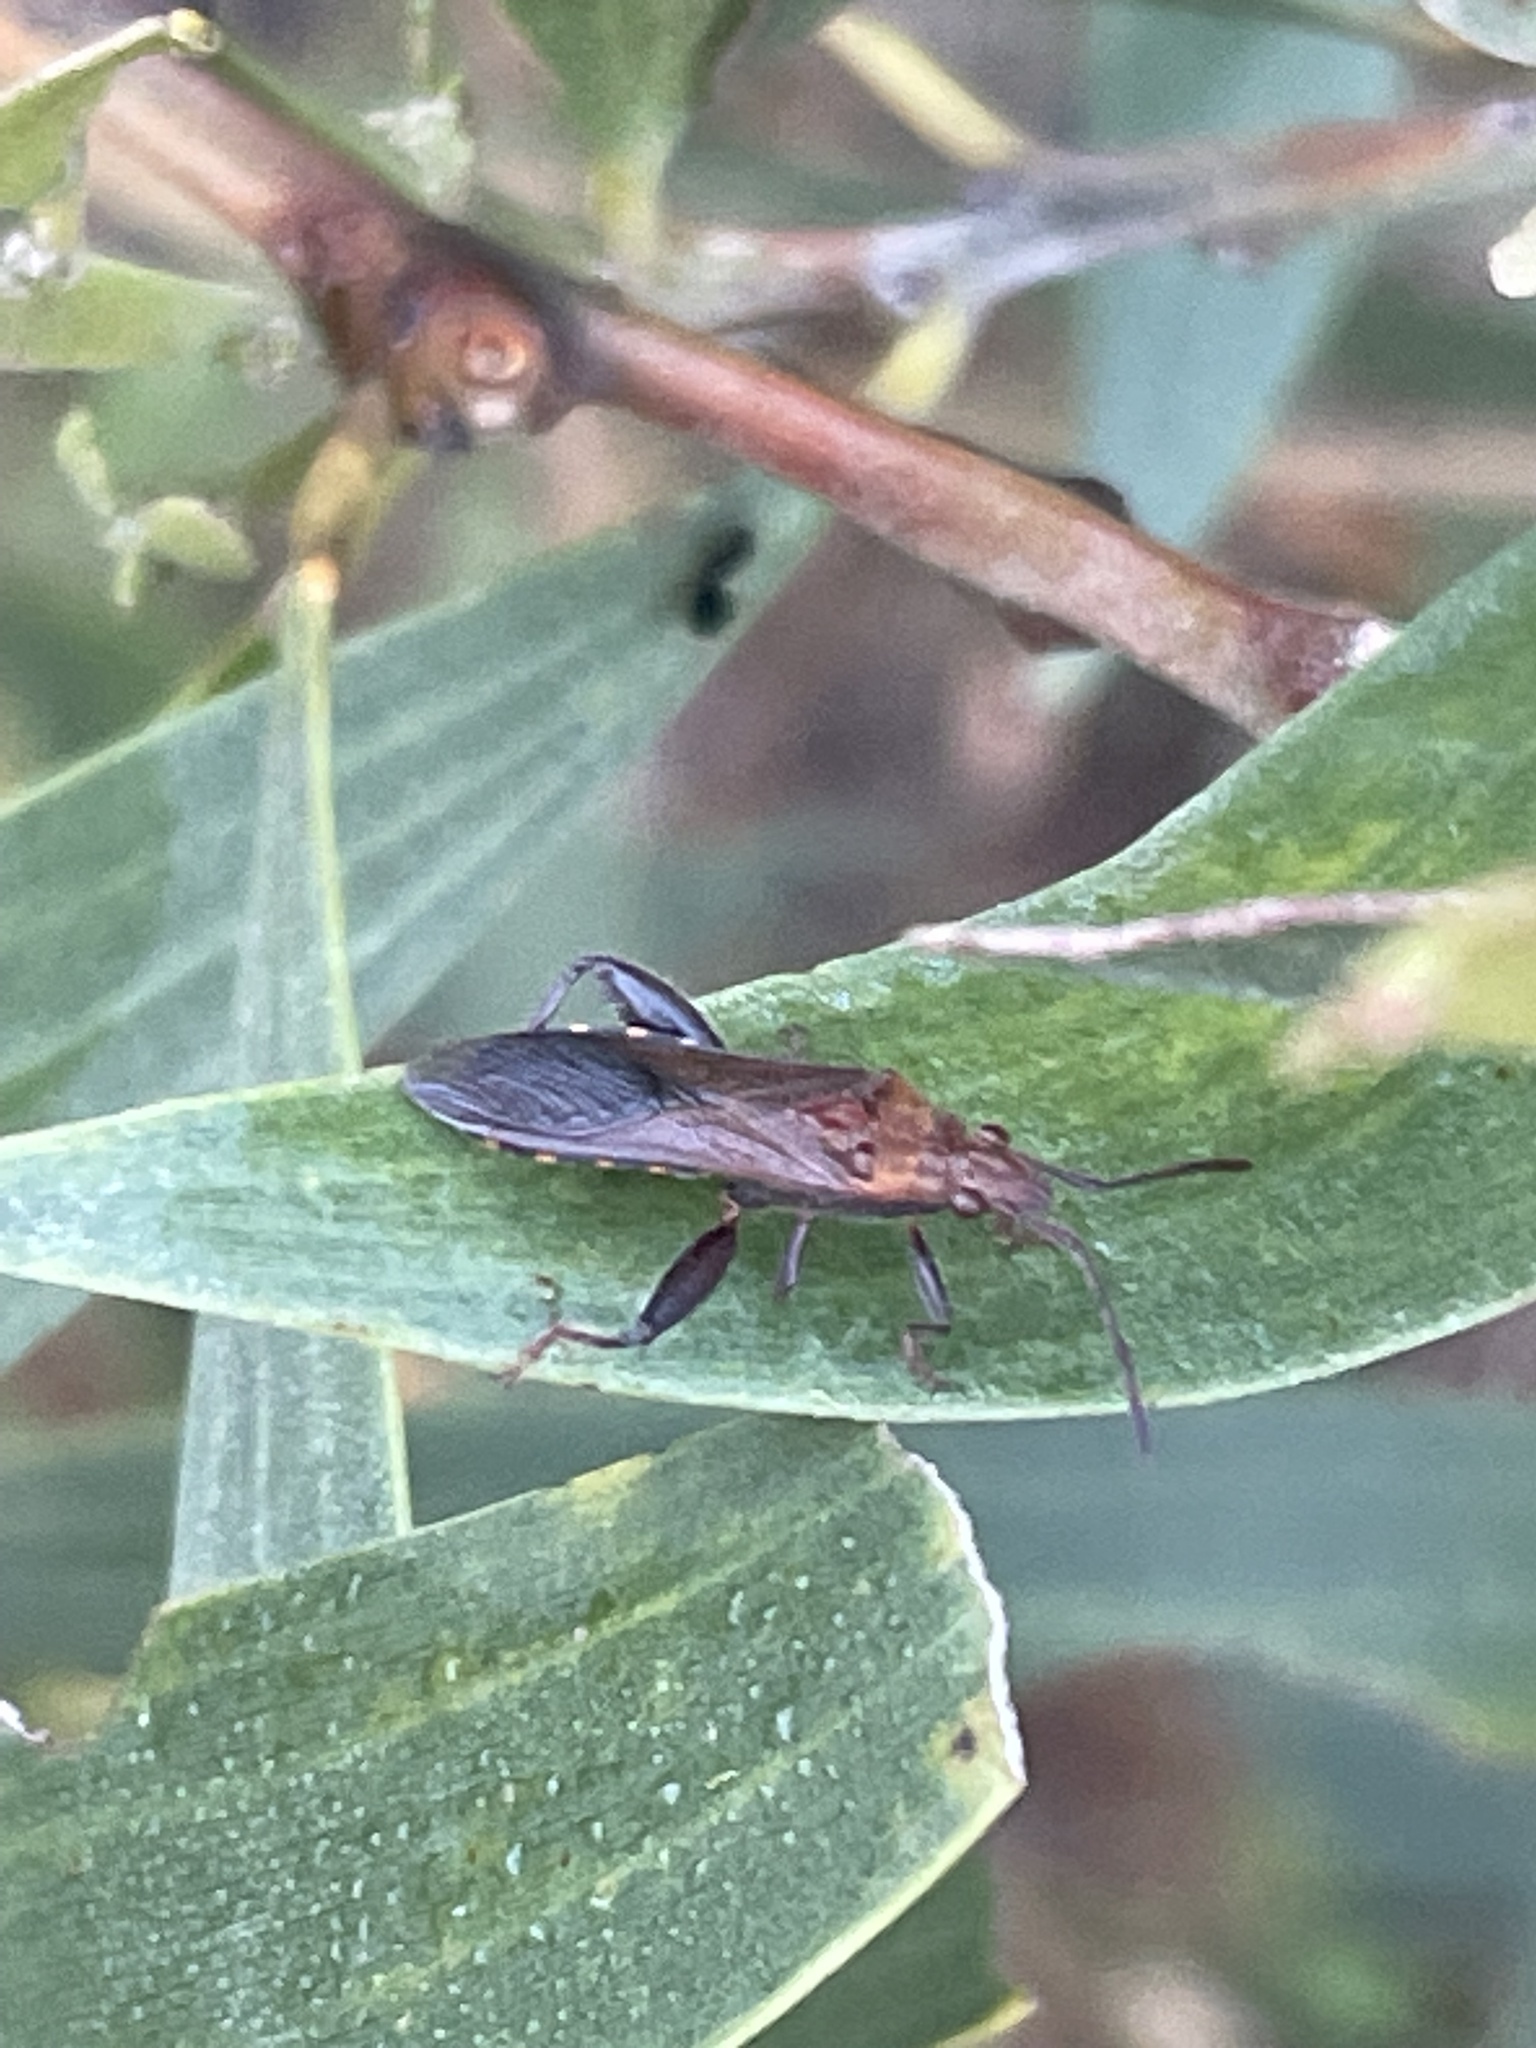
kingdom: Animalia
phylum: Arthropoda
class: Insecta
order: Hemiptera
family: Alydidae
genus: Daclera
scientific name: Daclera rufescens
